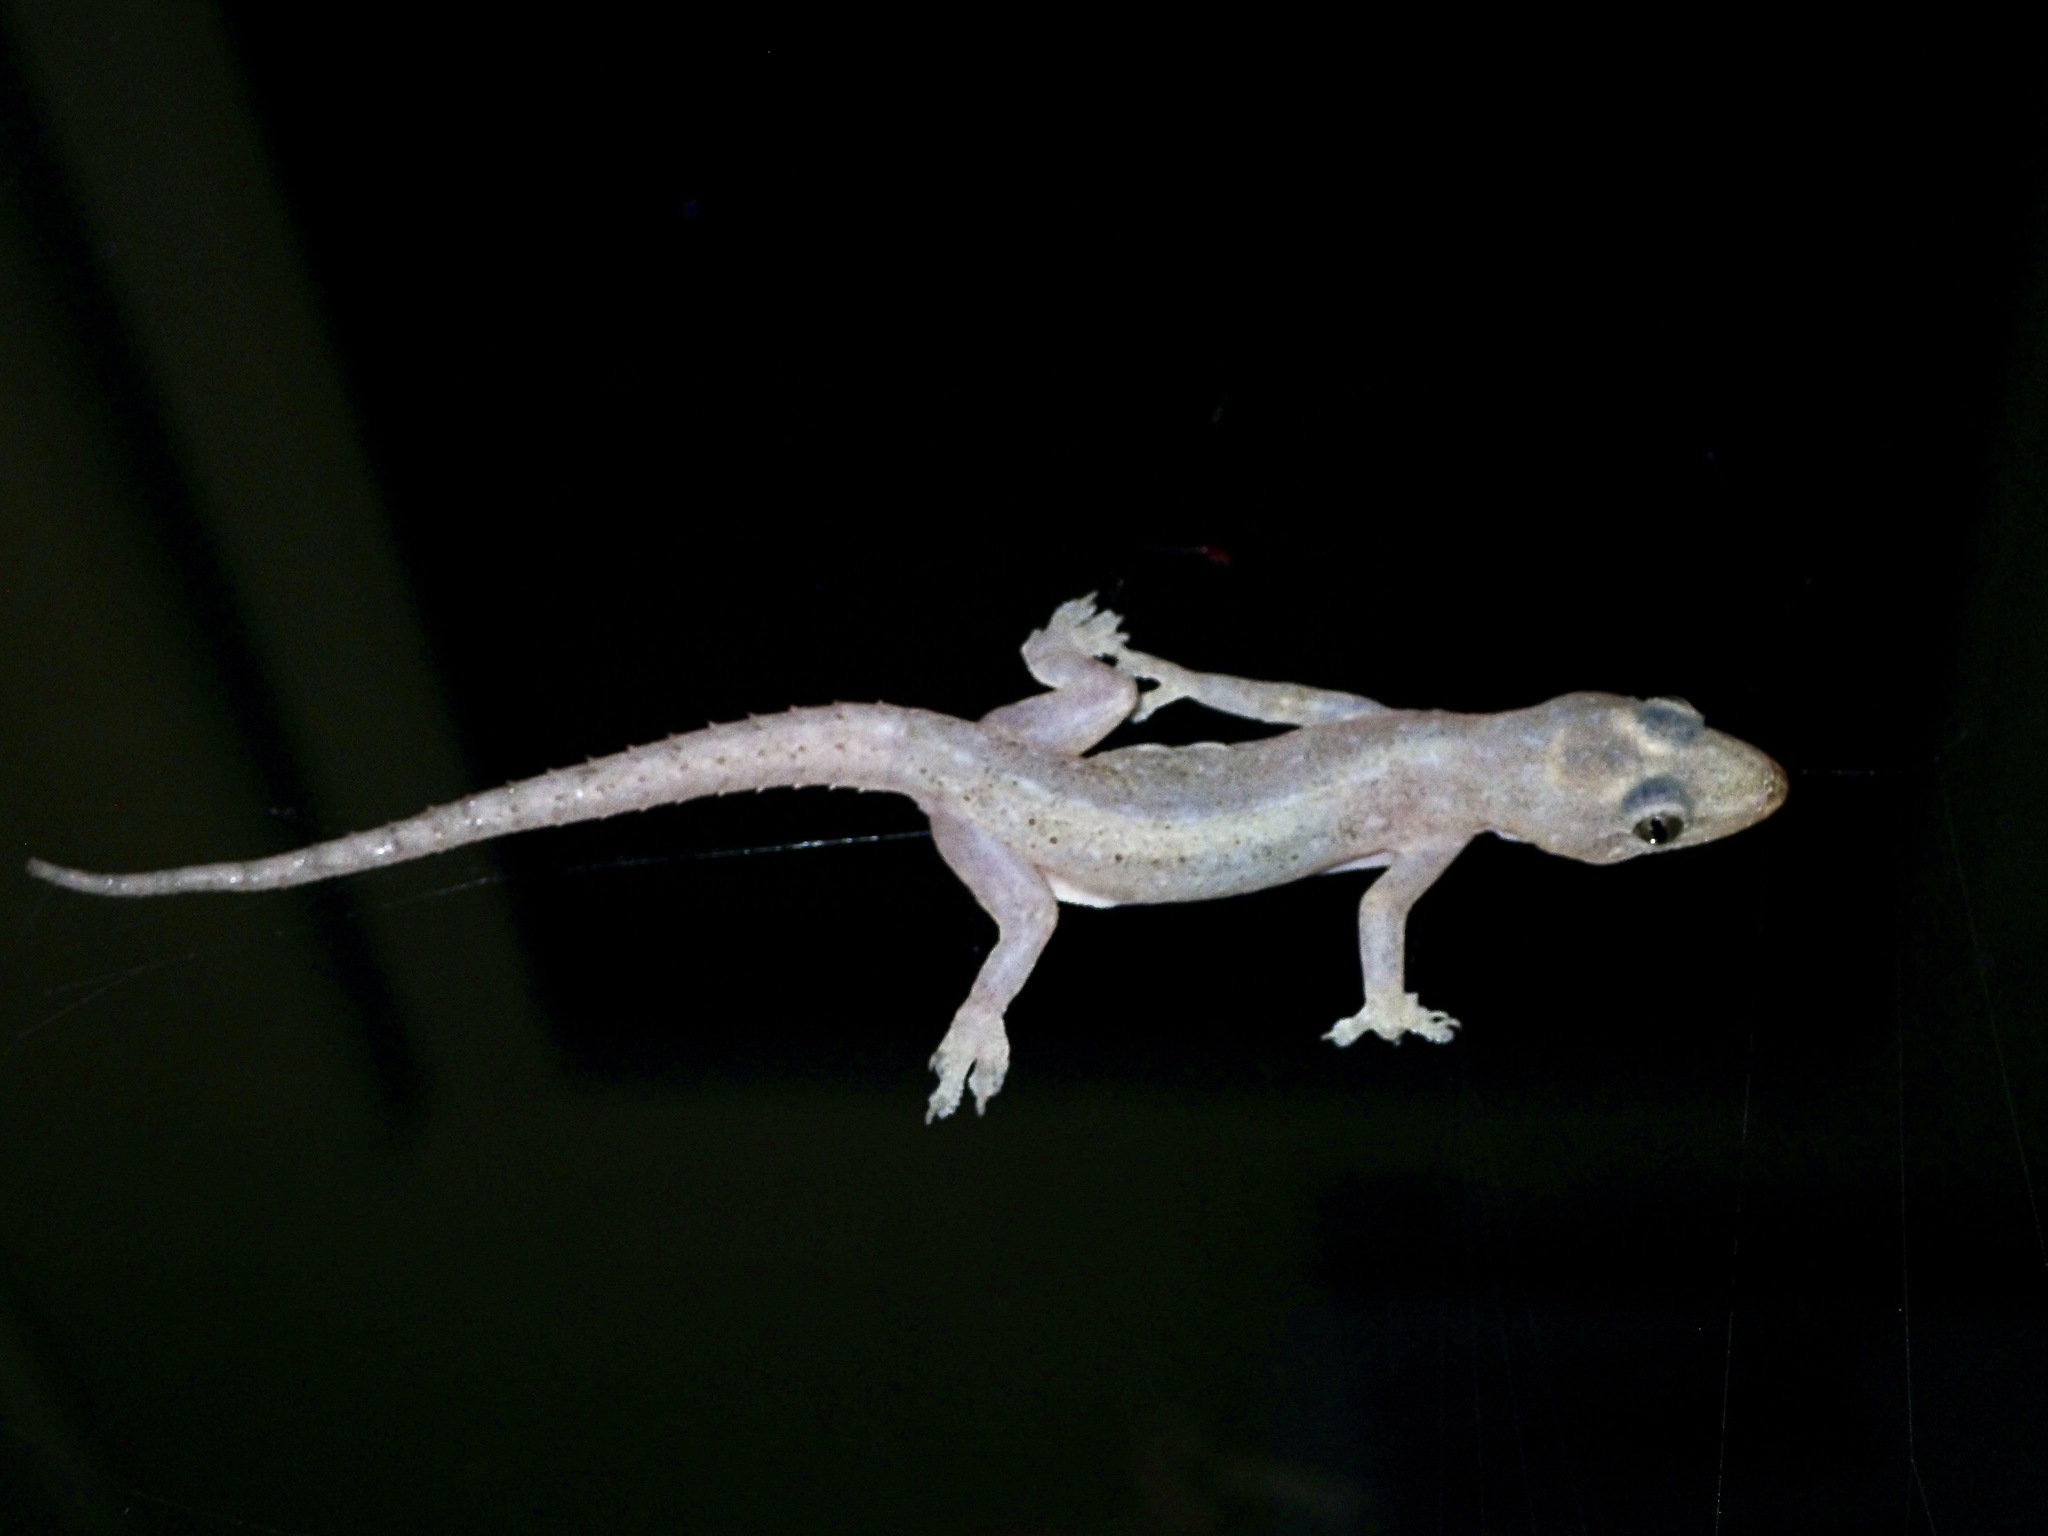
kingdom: Animalia
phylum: Chordata
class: Squamata
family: Gekkonidae
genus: Hemidactylus
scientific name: Hemidactylus frenatus
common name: Common house gecko
